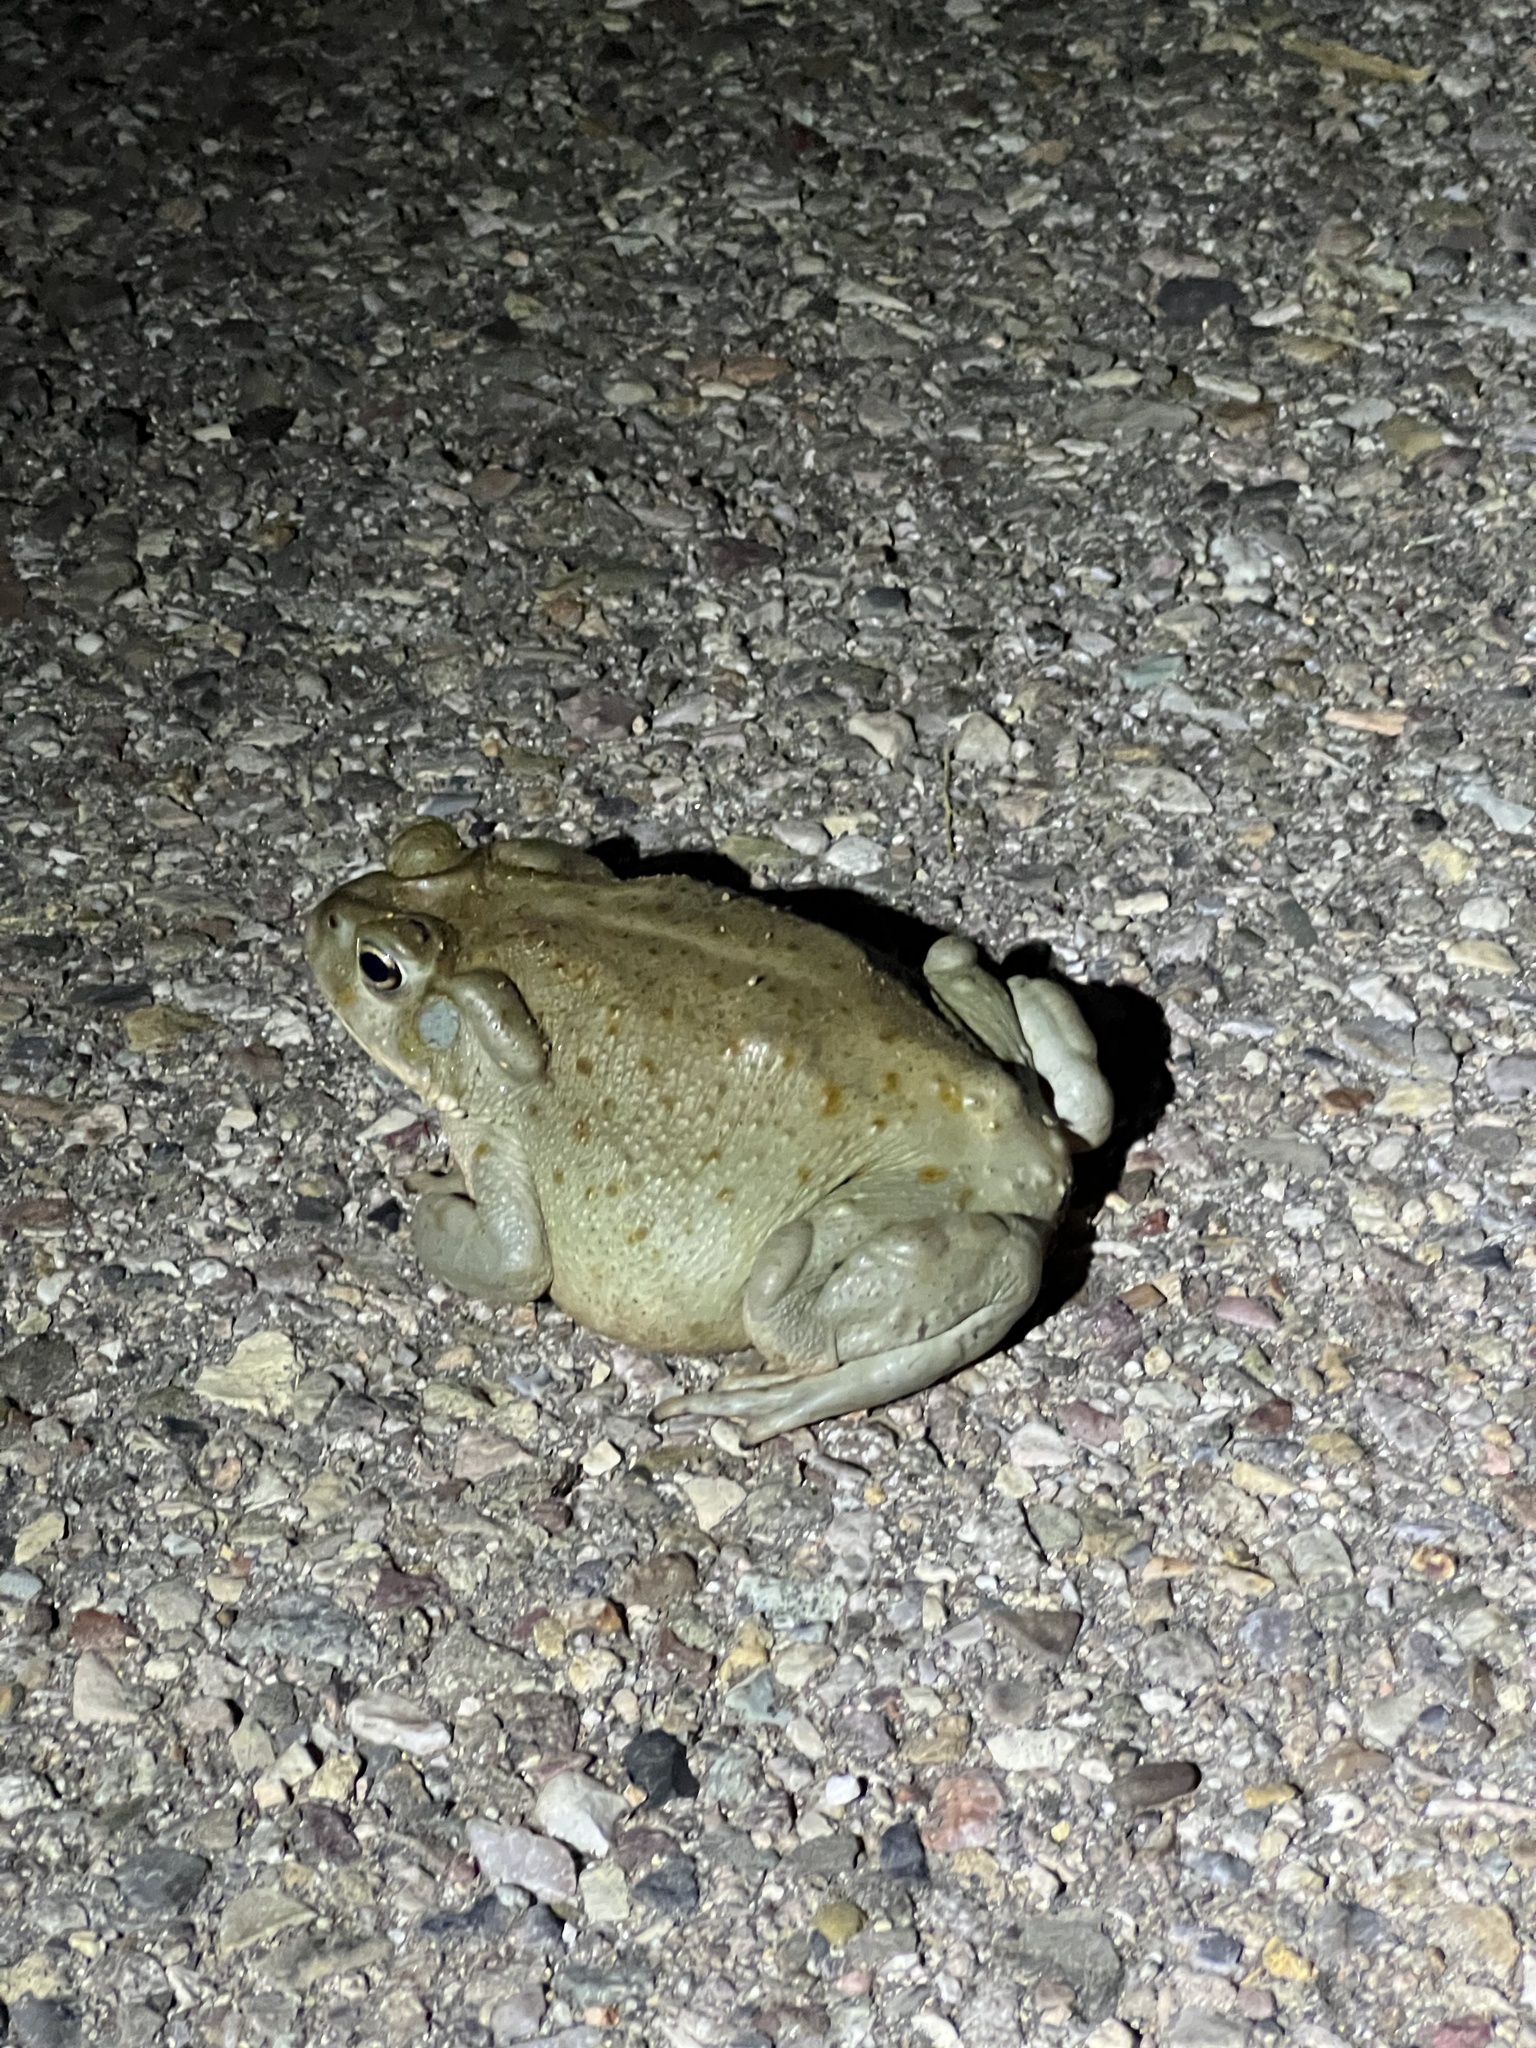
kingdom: Animalia
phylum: Chordata
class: Amphibia
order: Anura
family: Bufonidae
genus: Incilius
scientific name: Incilius alvarius
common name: Sonoran desert toad
